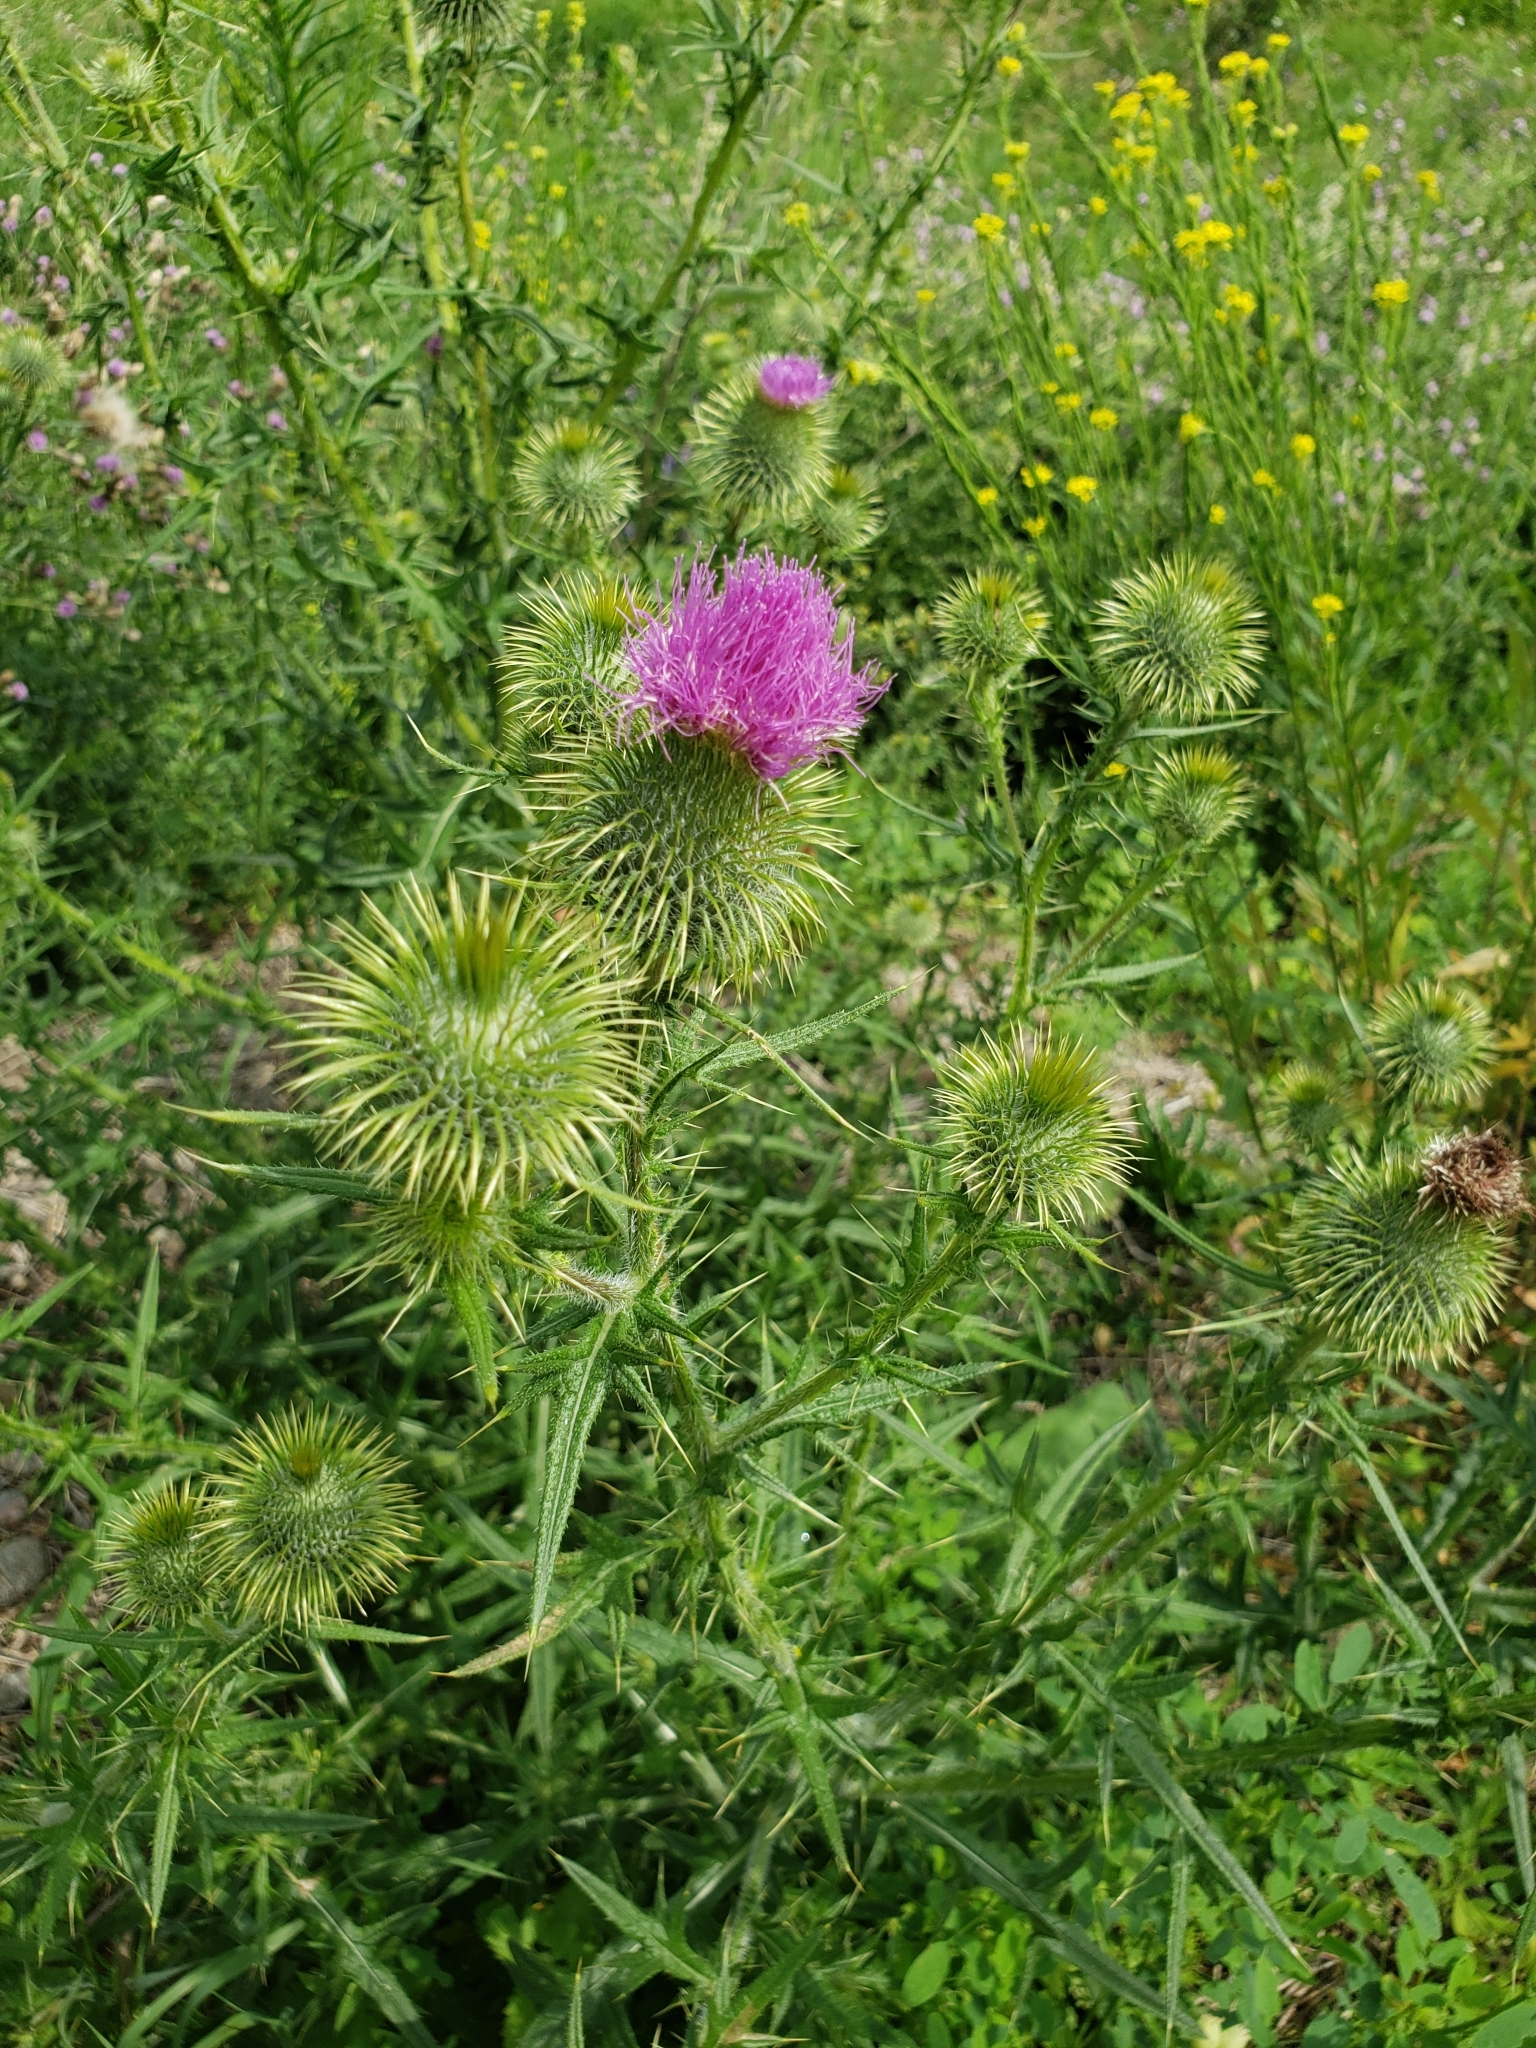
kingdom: Plantae
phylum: Tracheophyta
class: Magnoliopsida
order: Asterales
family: Asteraceae
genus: Cirsium
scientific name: Cirsium vulgare
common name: Bull thistle
